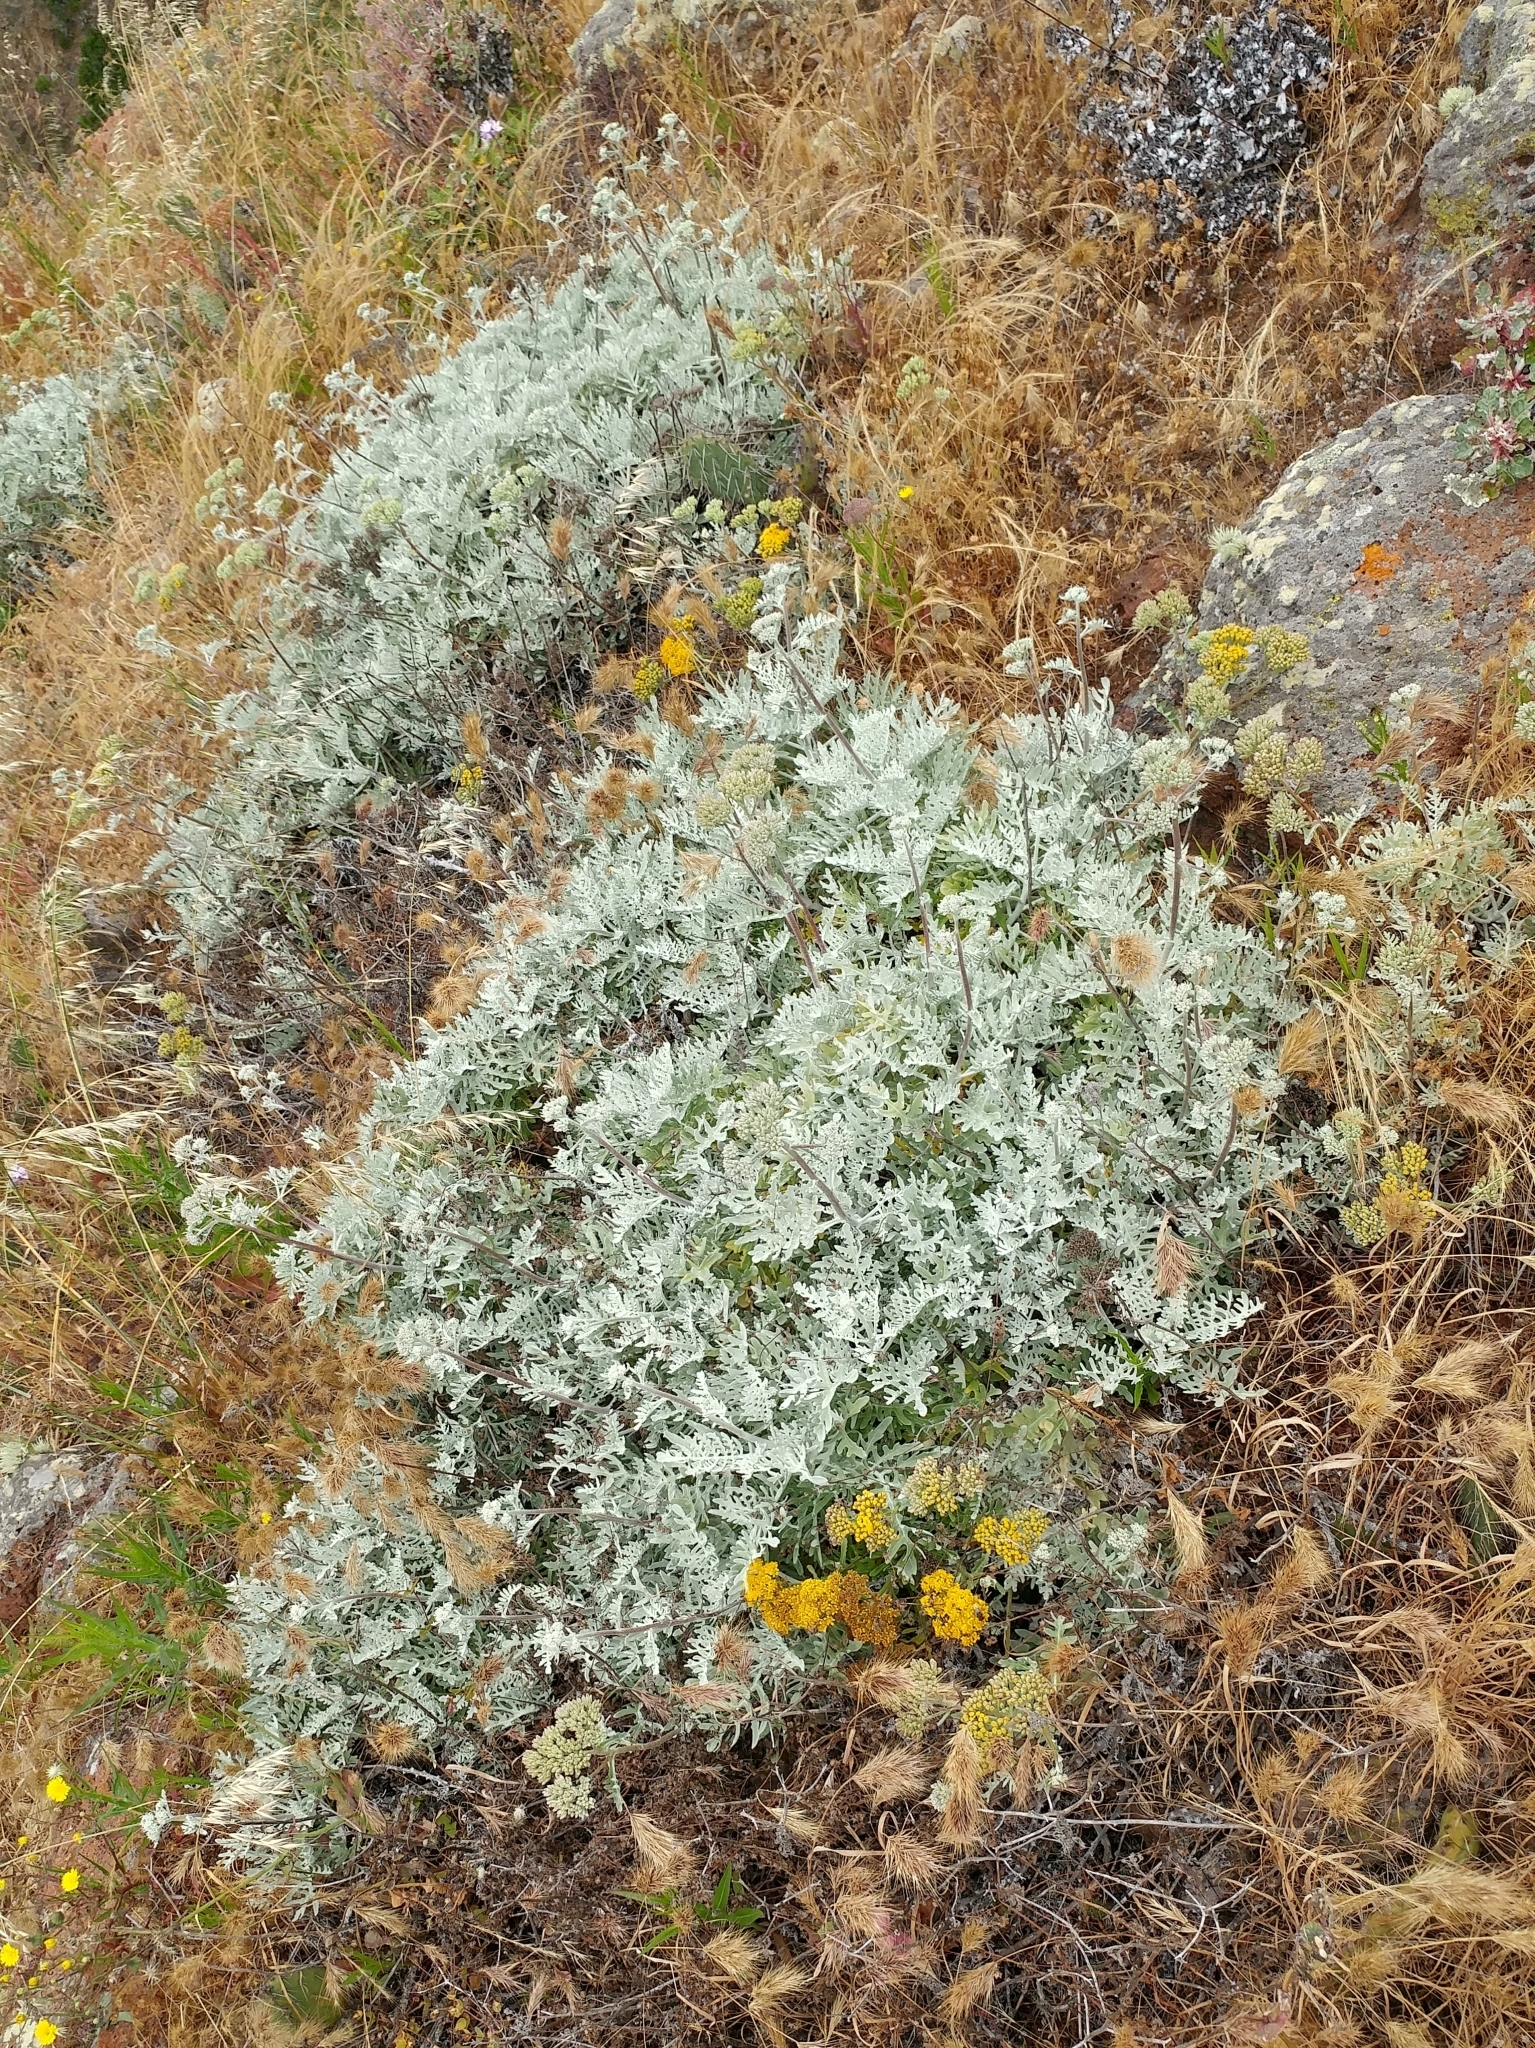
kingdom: Plantae
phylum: Tracheophyta
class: Magnoliopsida
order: Asterales
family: Asteraceae
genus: Constancea
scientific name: Constancea nevinii
